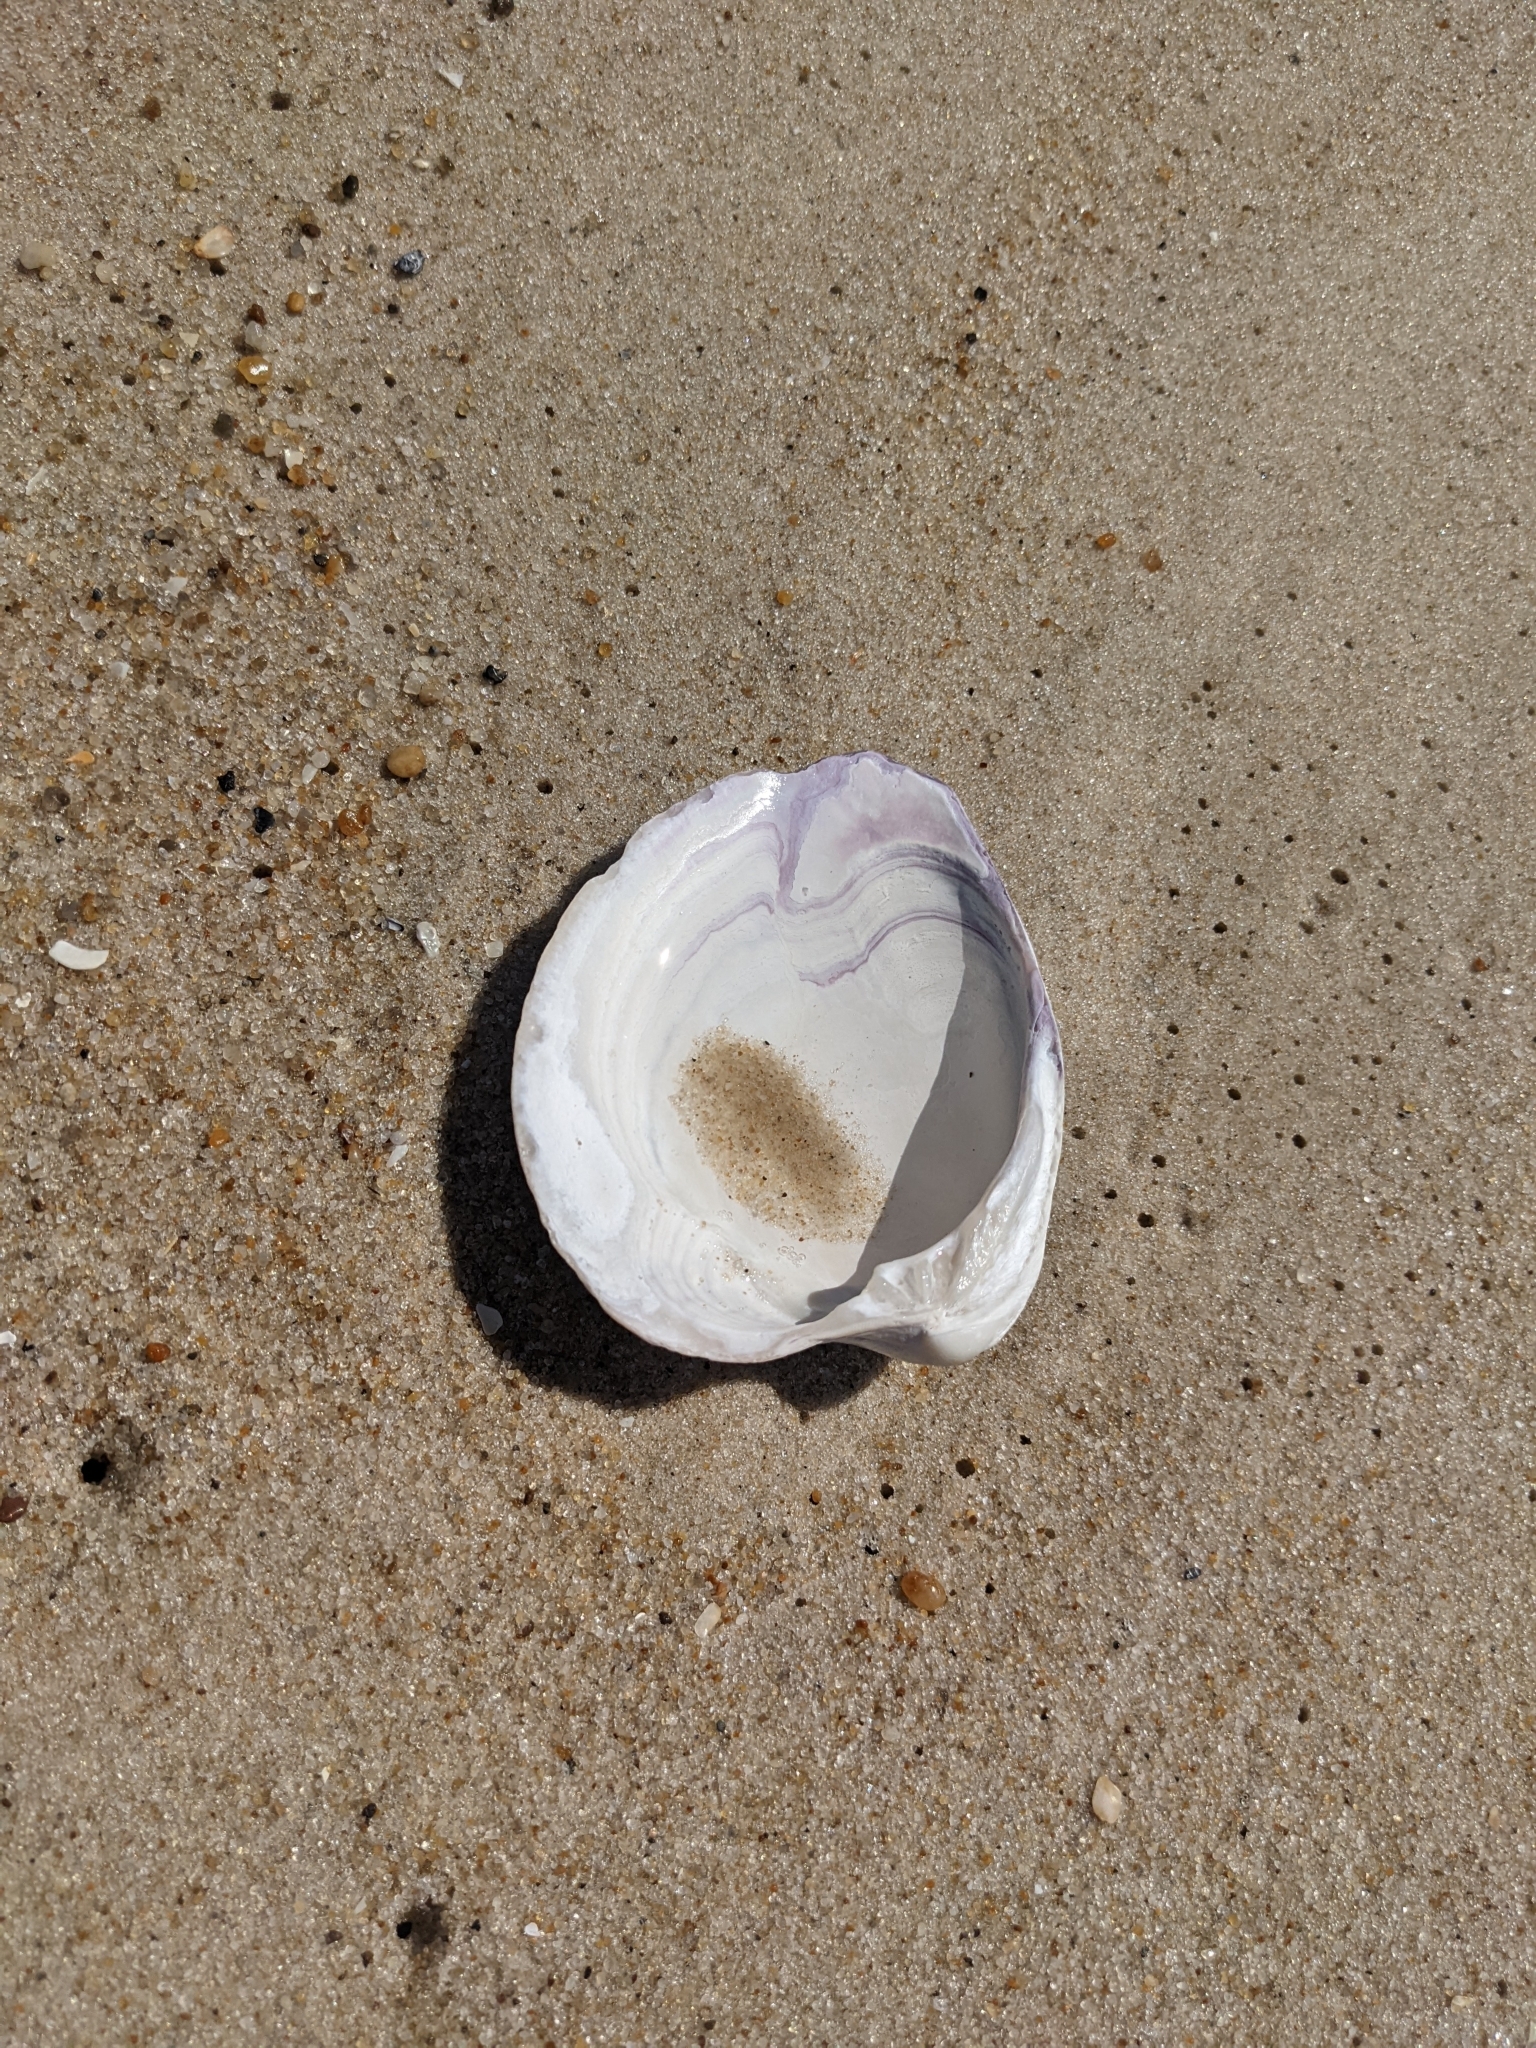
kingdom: Animalia
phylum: Mollusca
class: Bivalvia
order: Venerida
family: Veneridae
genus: Mercenaria
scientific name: Mercenaria mercenaria
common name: American hard-shelled clam
